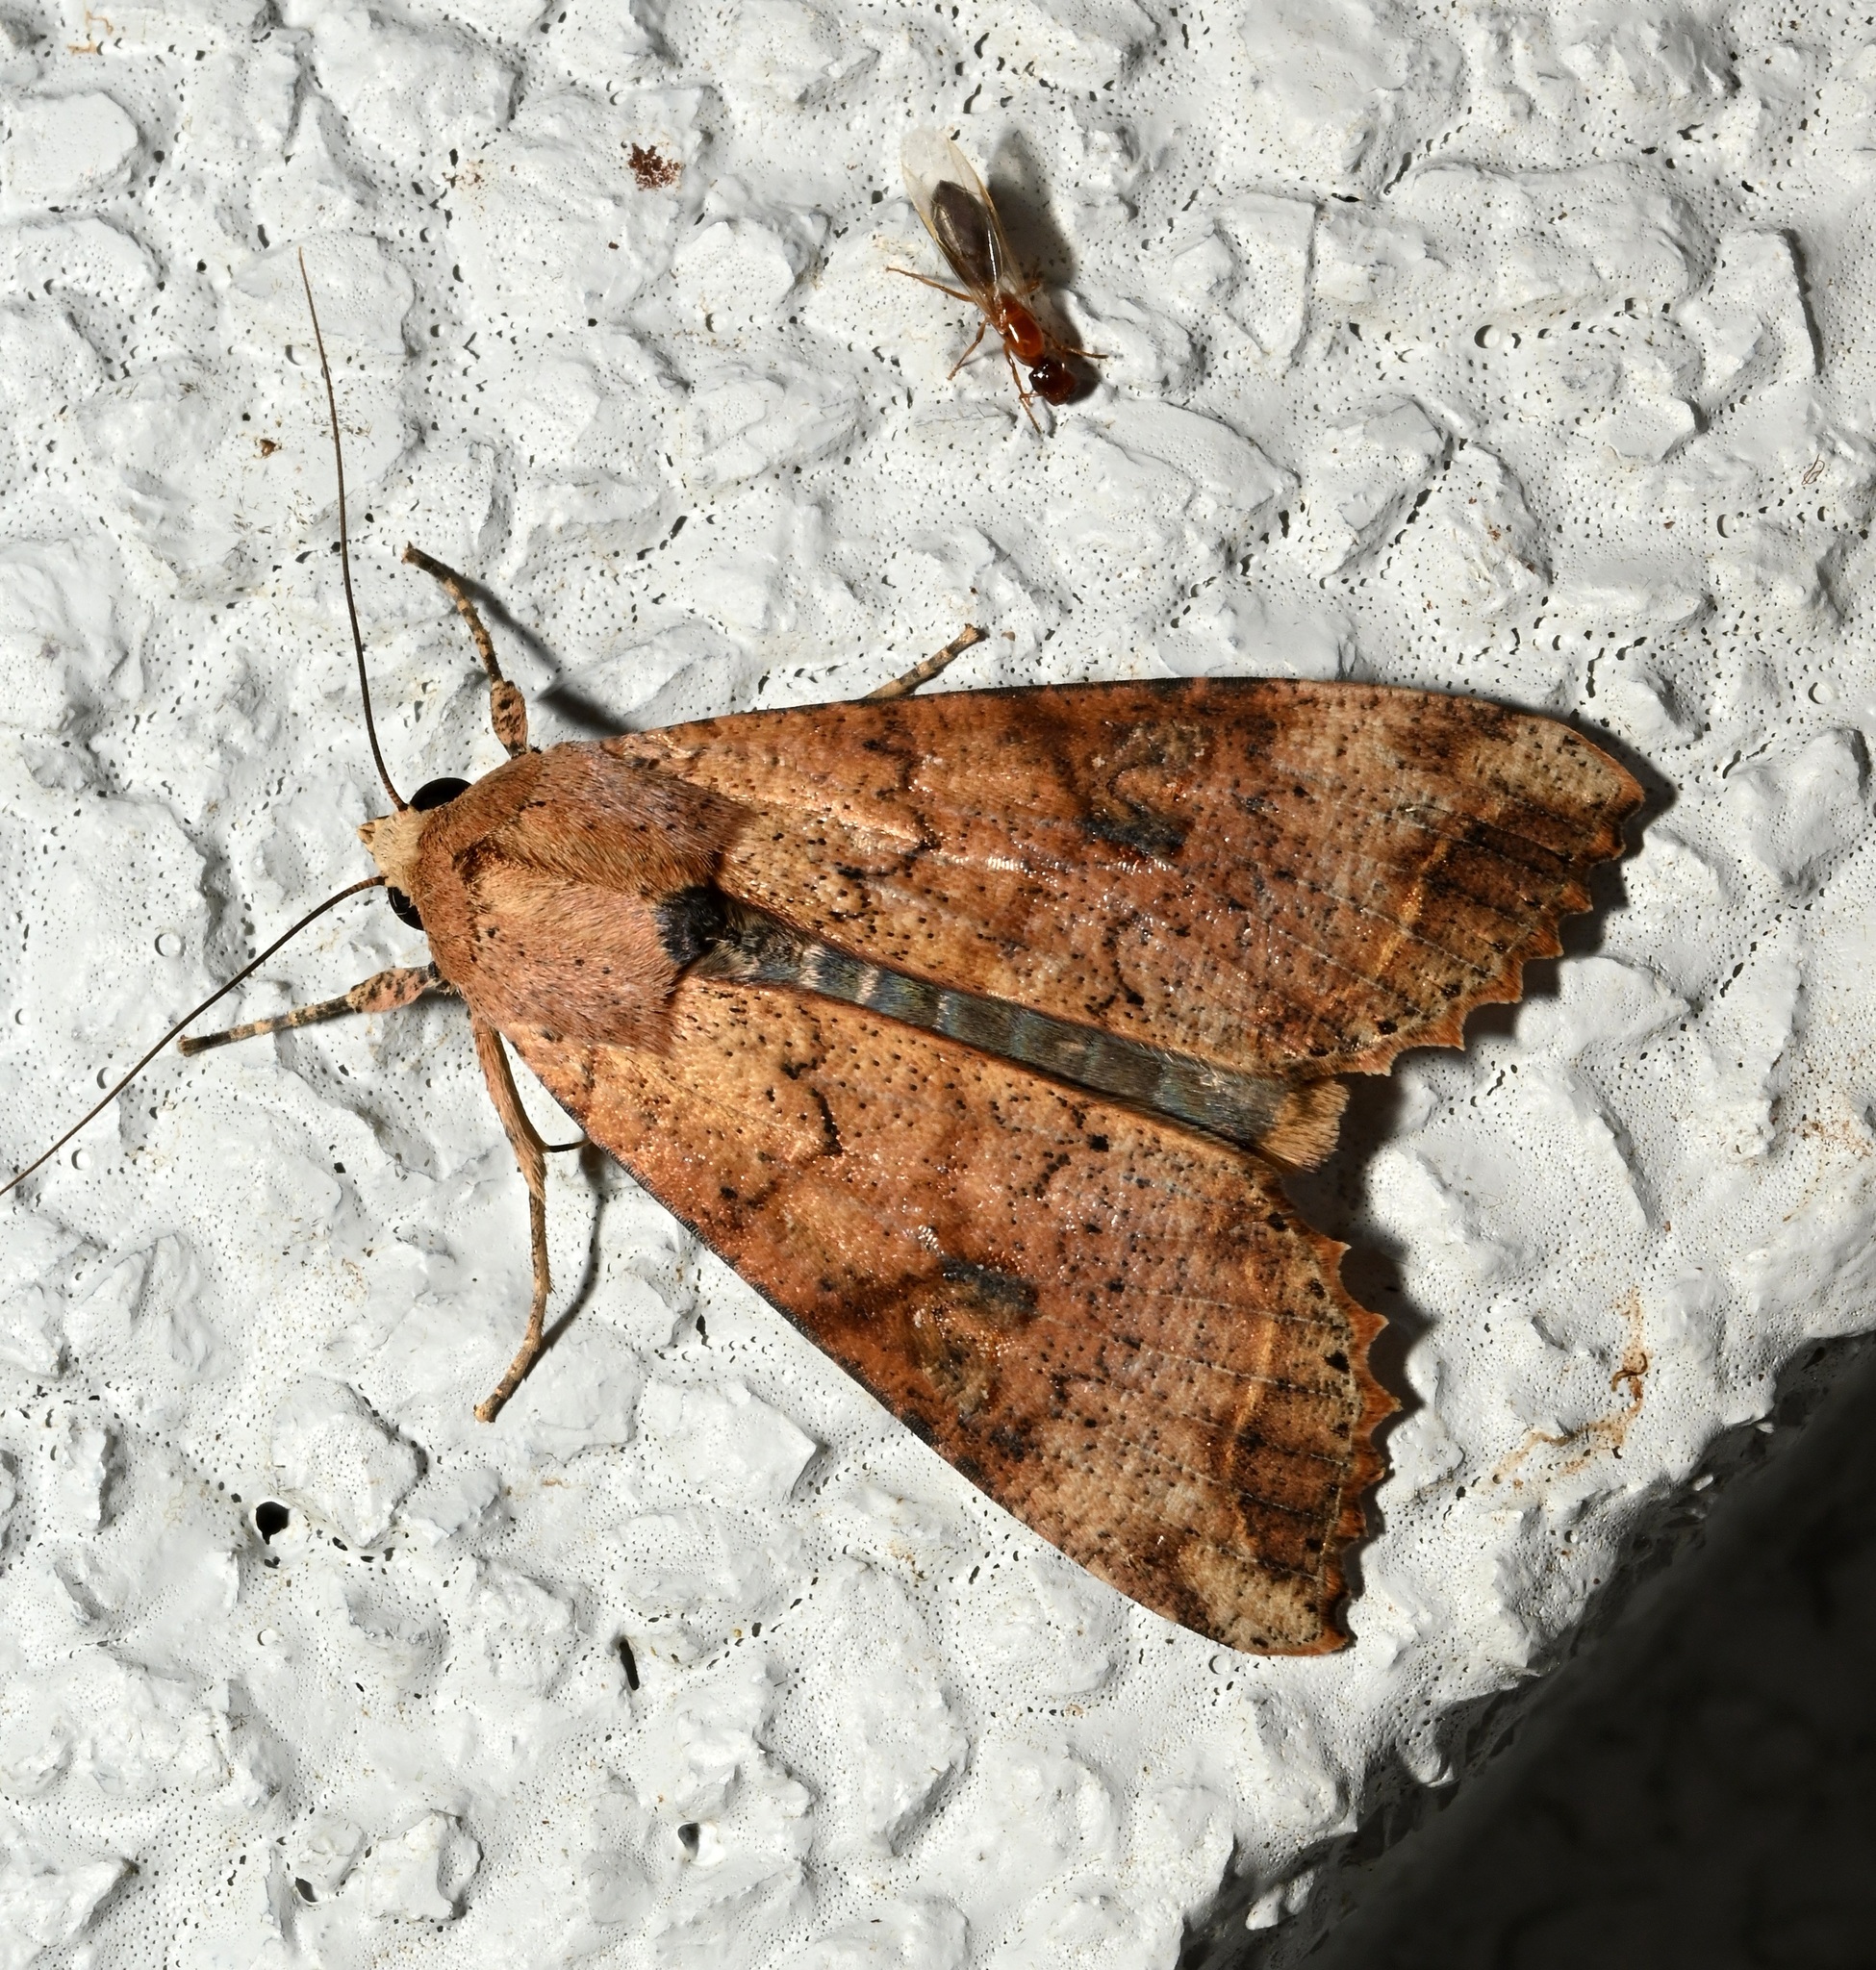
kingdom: Animalia
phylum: Arthropoda
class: Insecta
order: Lepidoptera
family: Noctuidae
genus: Tiracola
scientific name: Tiracola aureata
